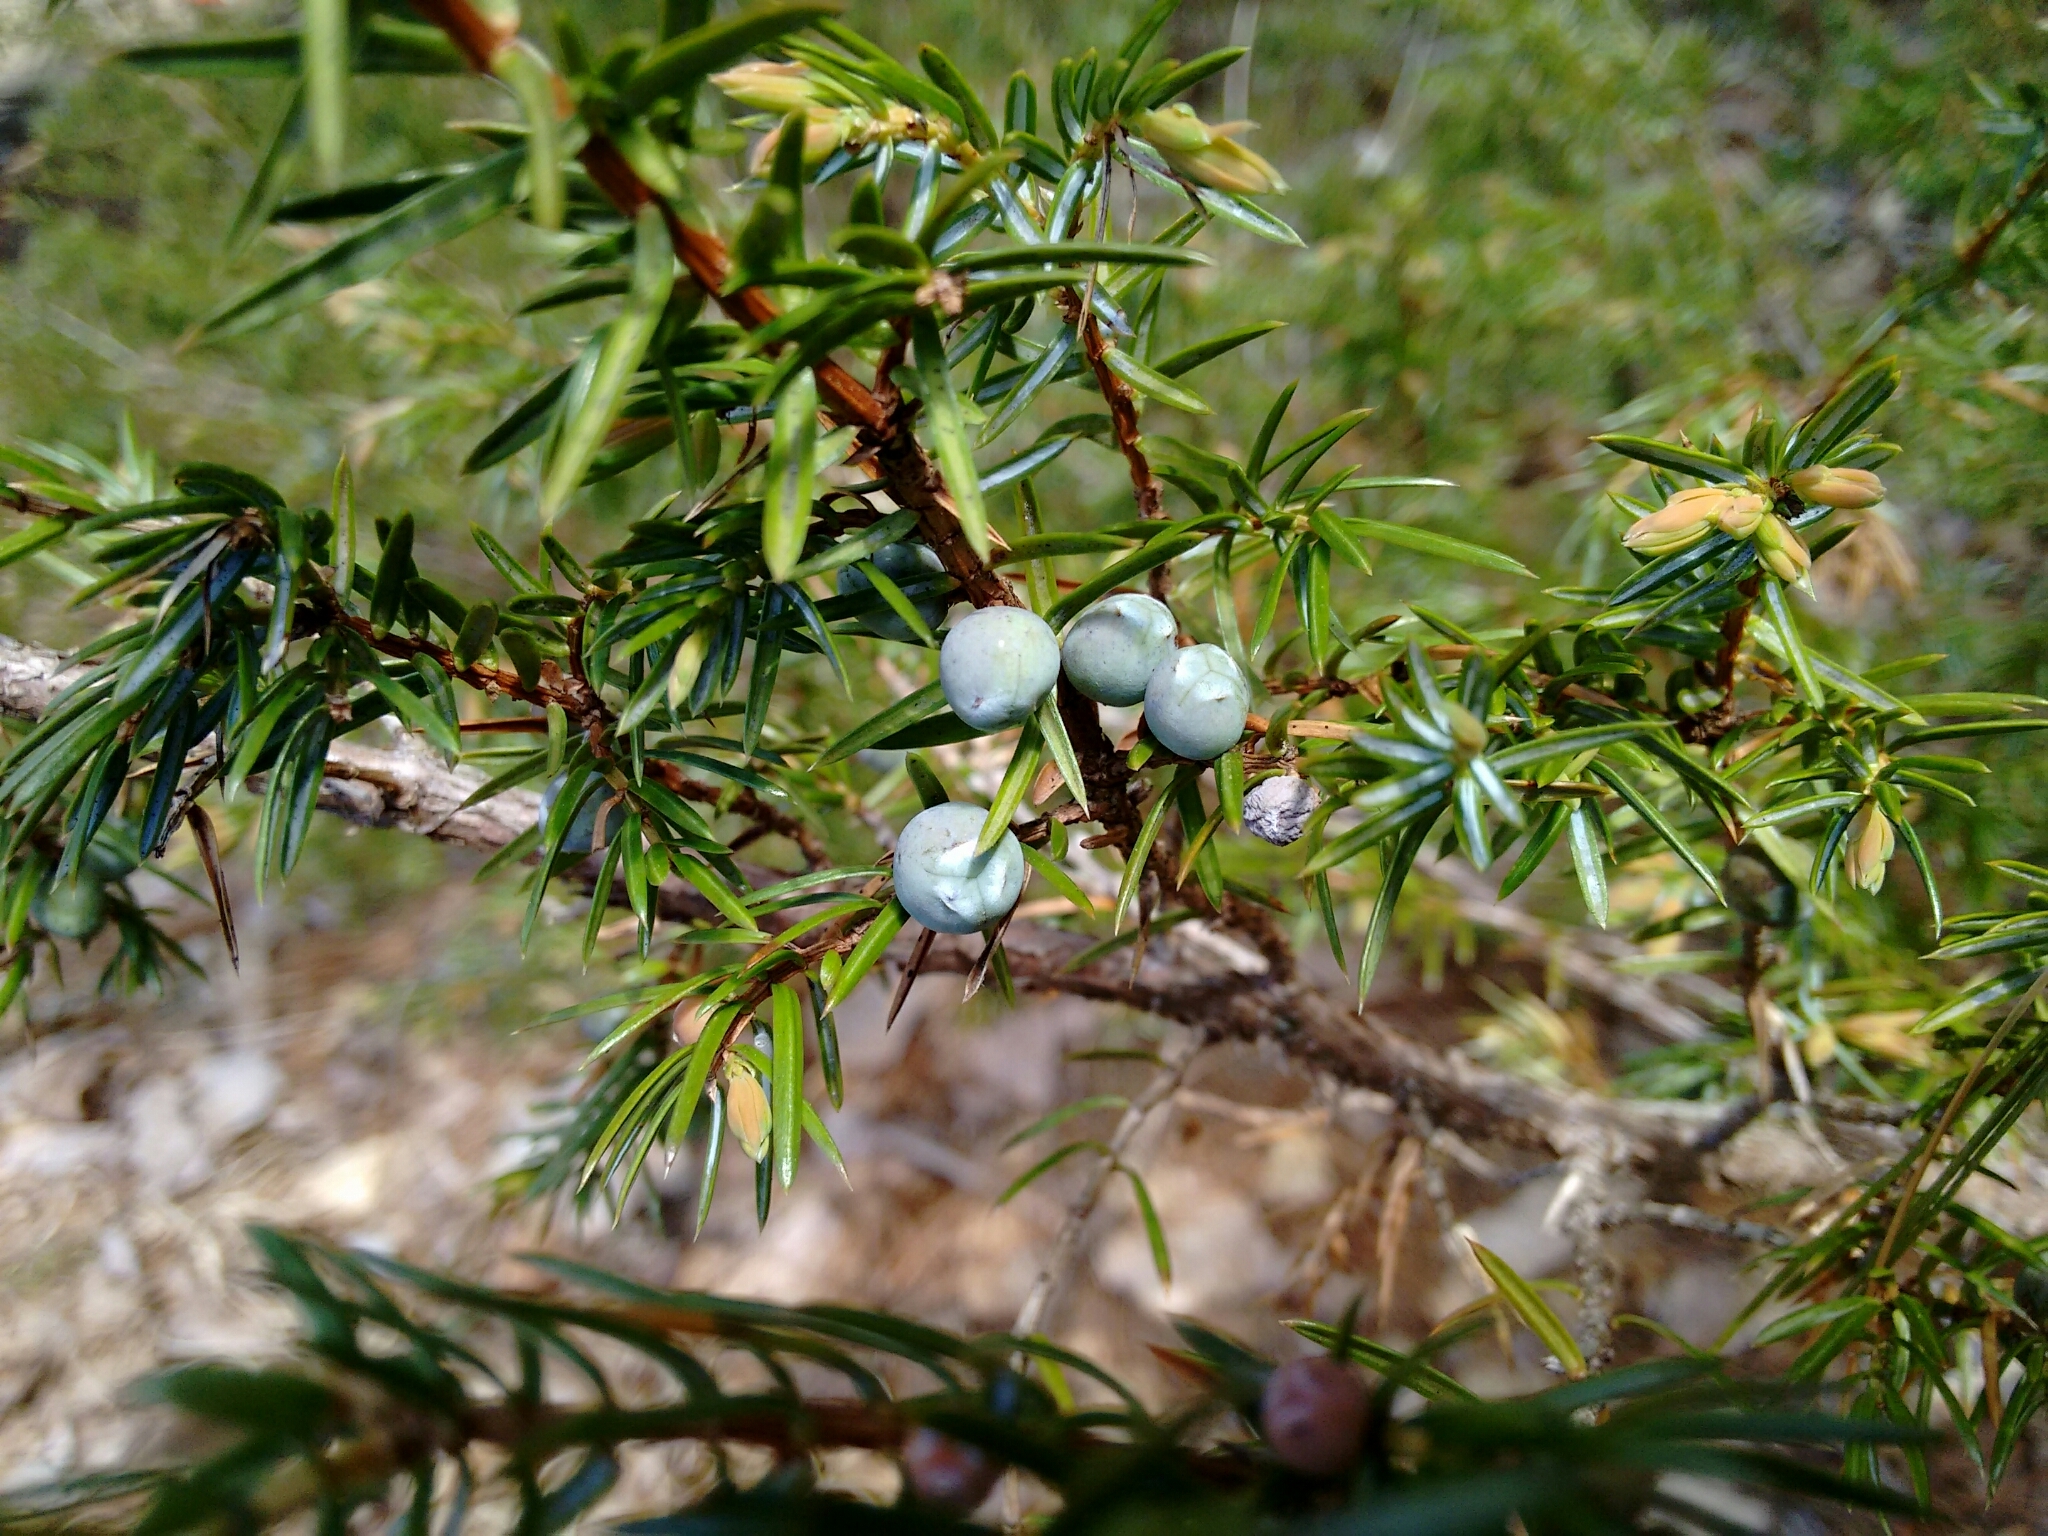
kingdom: Plantae
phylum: Tracheophyta
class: Pinopsida
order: Pinales
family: Cupressaceae
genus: Juniperus
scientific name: Juniperus communis
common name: Common juniper
